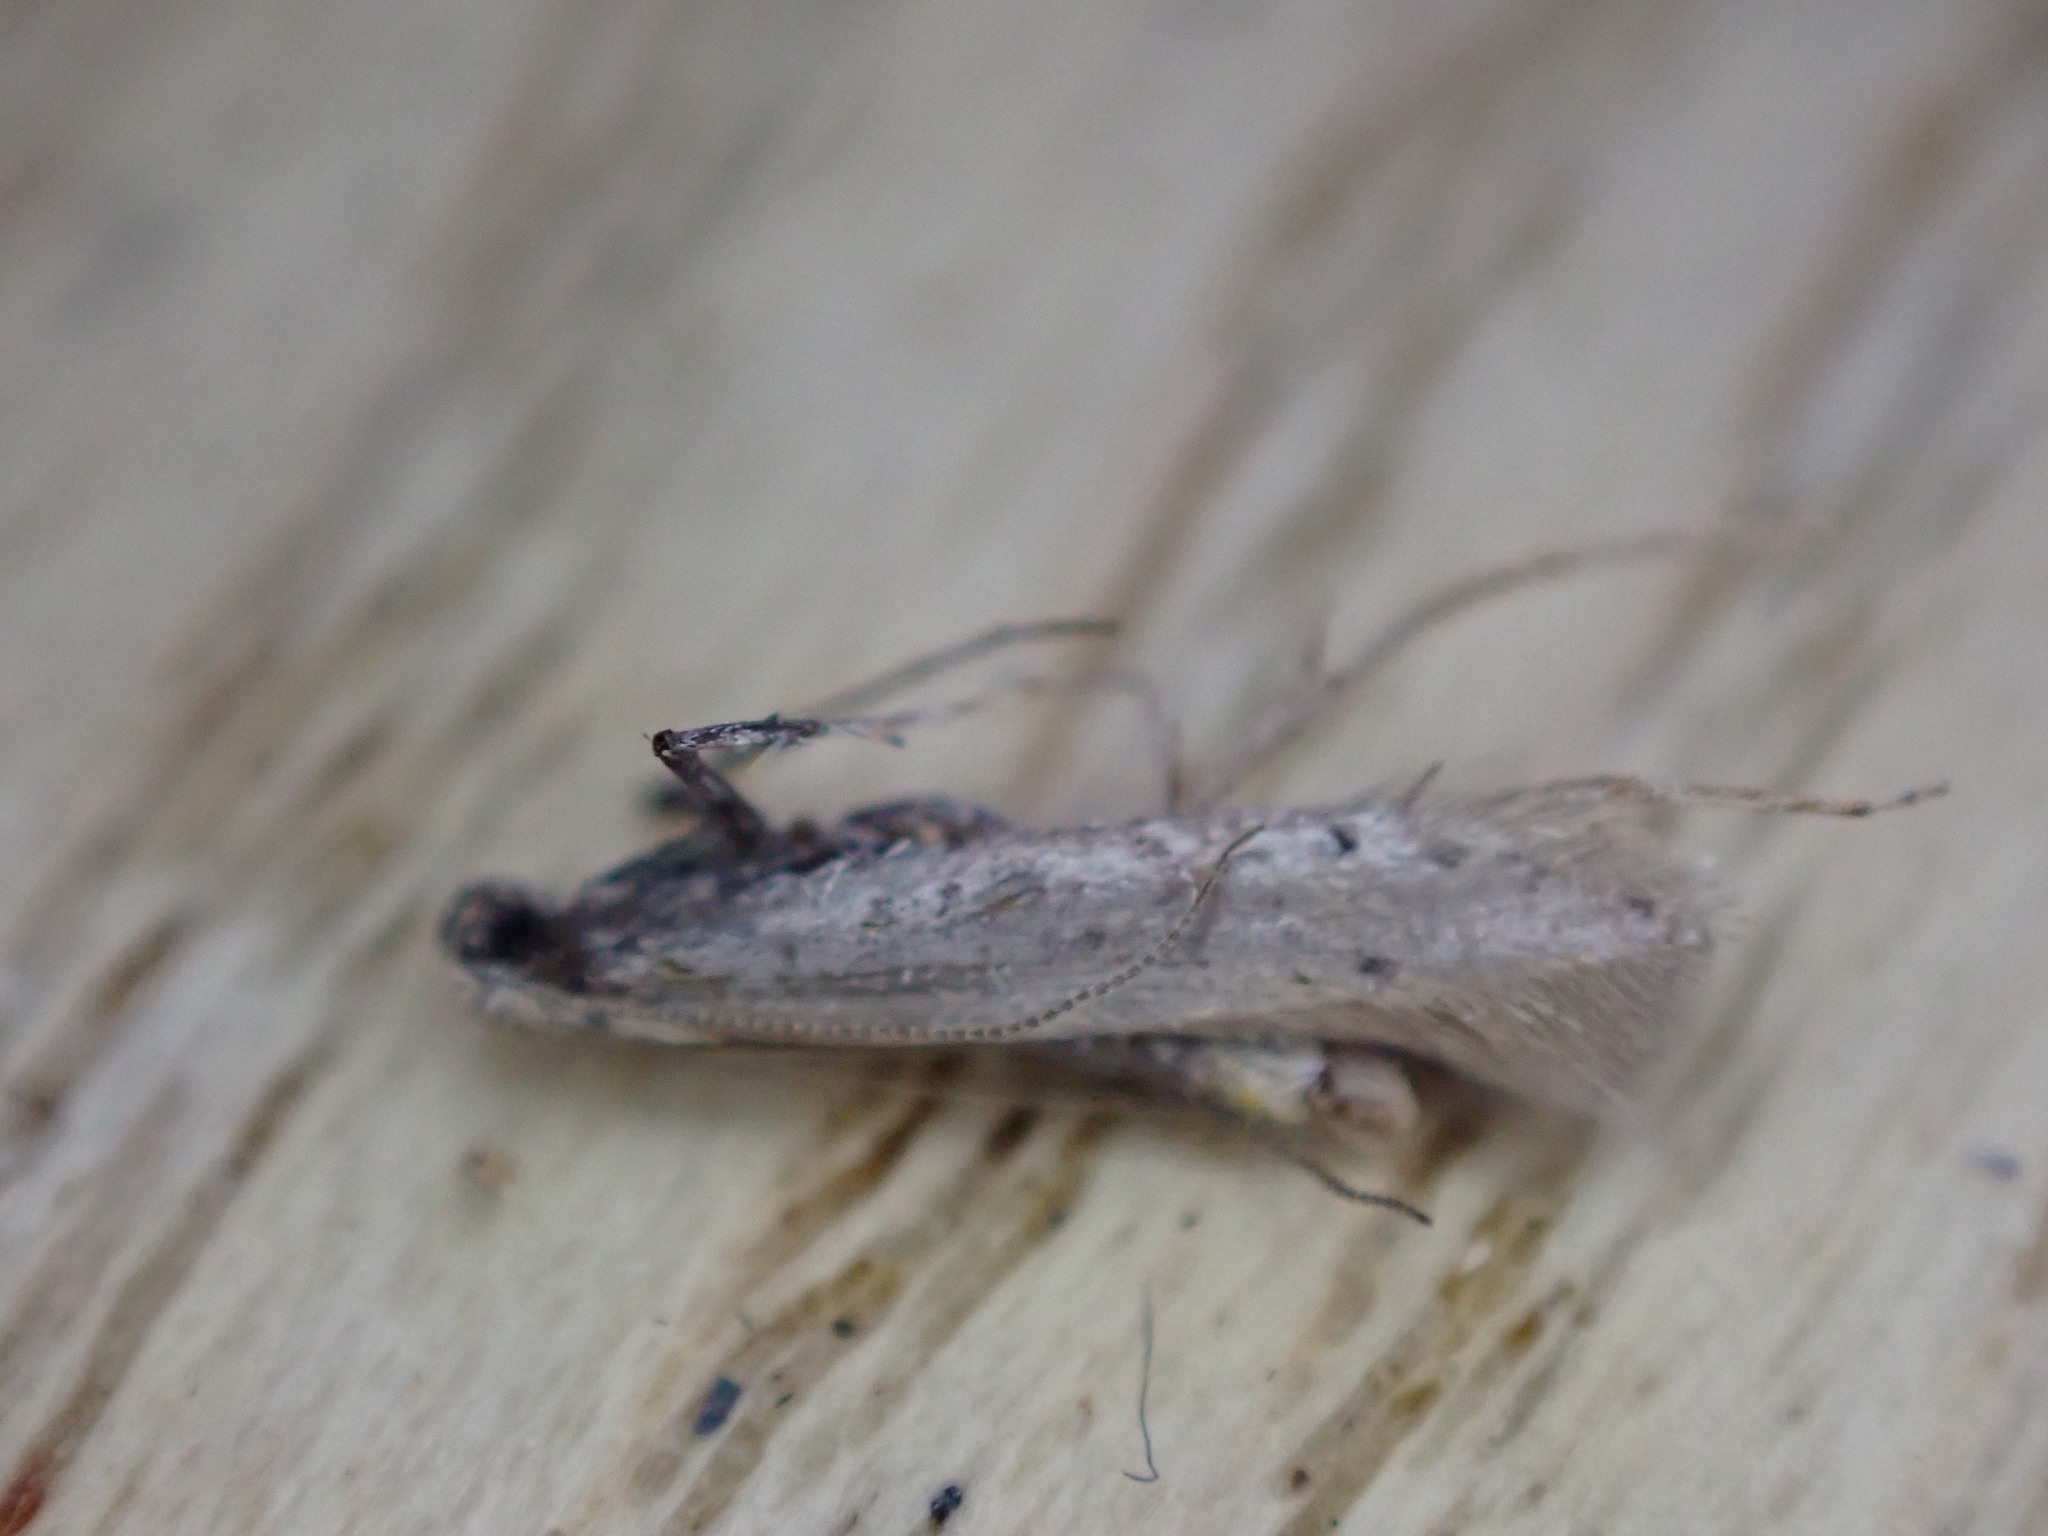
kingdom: Animalia
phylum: Arthropoda
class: Insecta
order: Lepidoptera
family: Gracillariidae
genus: Aspilapteryx
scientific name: Aspilapteryx tringipennella
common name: Ribwort slender
